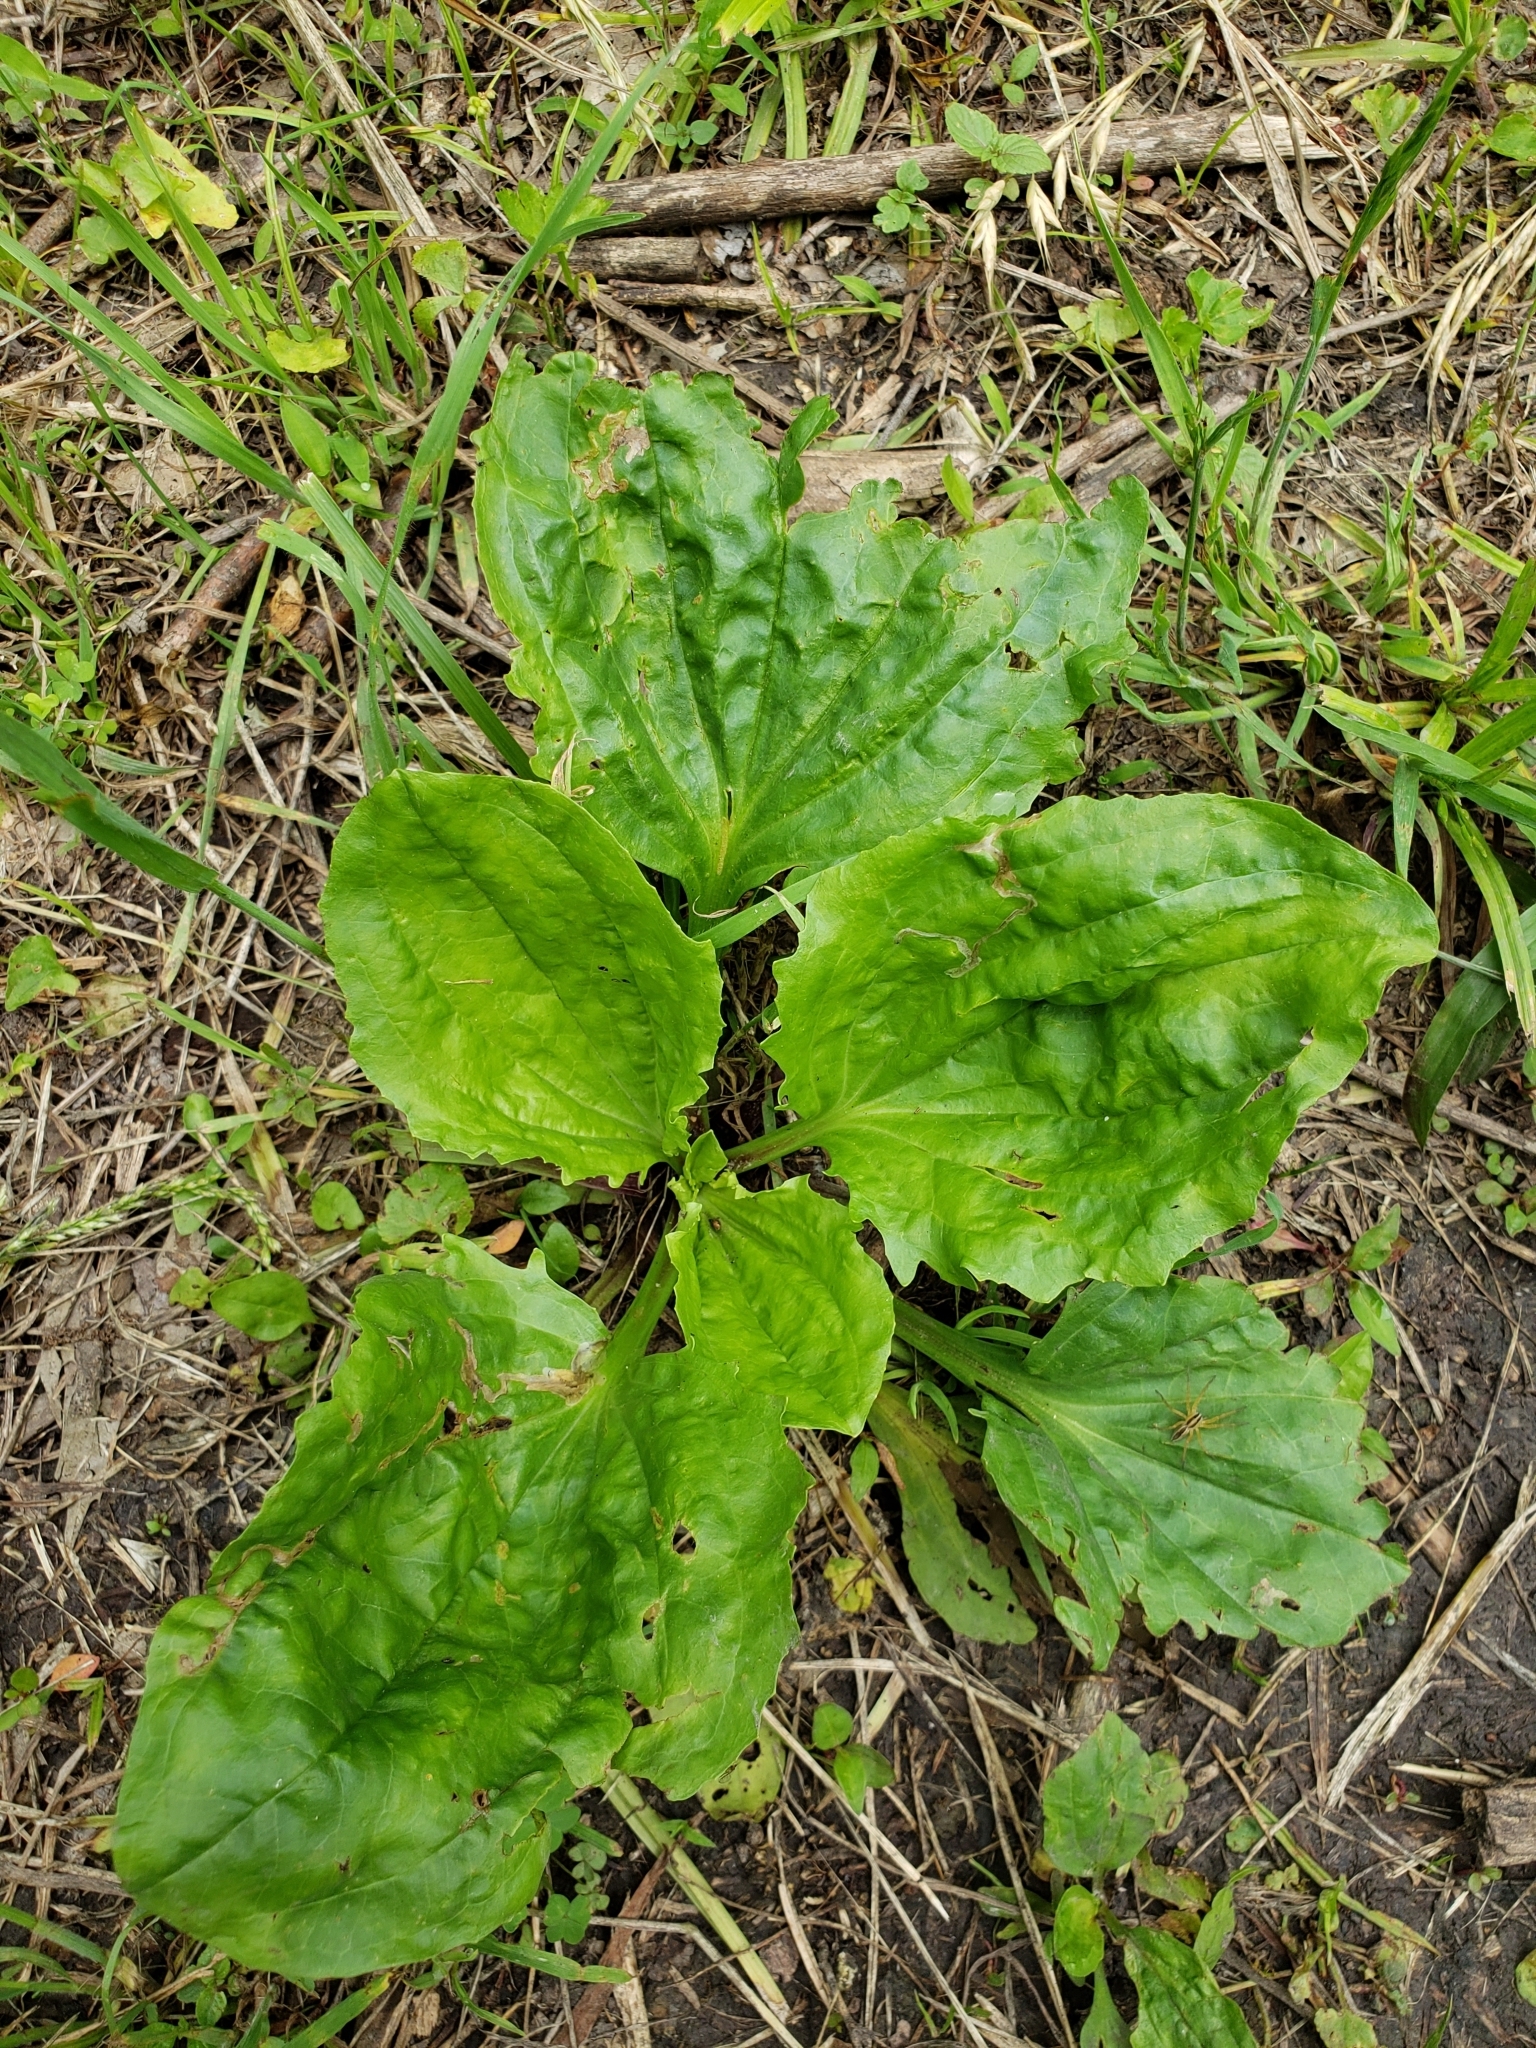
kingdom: Plantae
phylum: Tracheophyta
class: Magnoliopsida
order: Lamiales
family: Plantaginaceae
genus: Plantago
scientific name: Plantago rugelii
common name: American plantain
